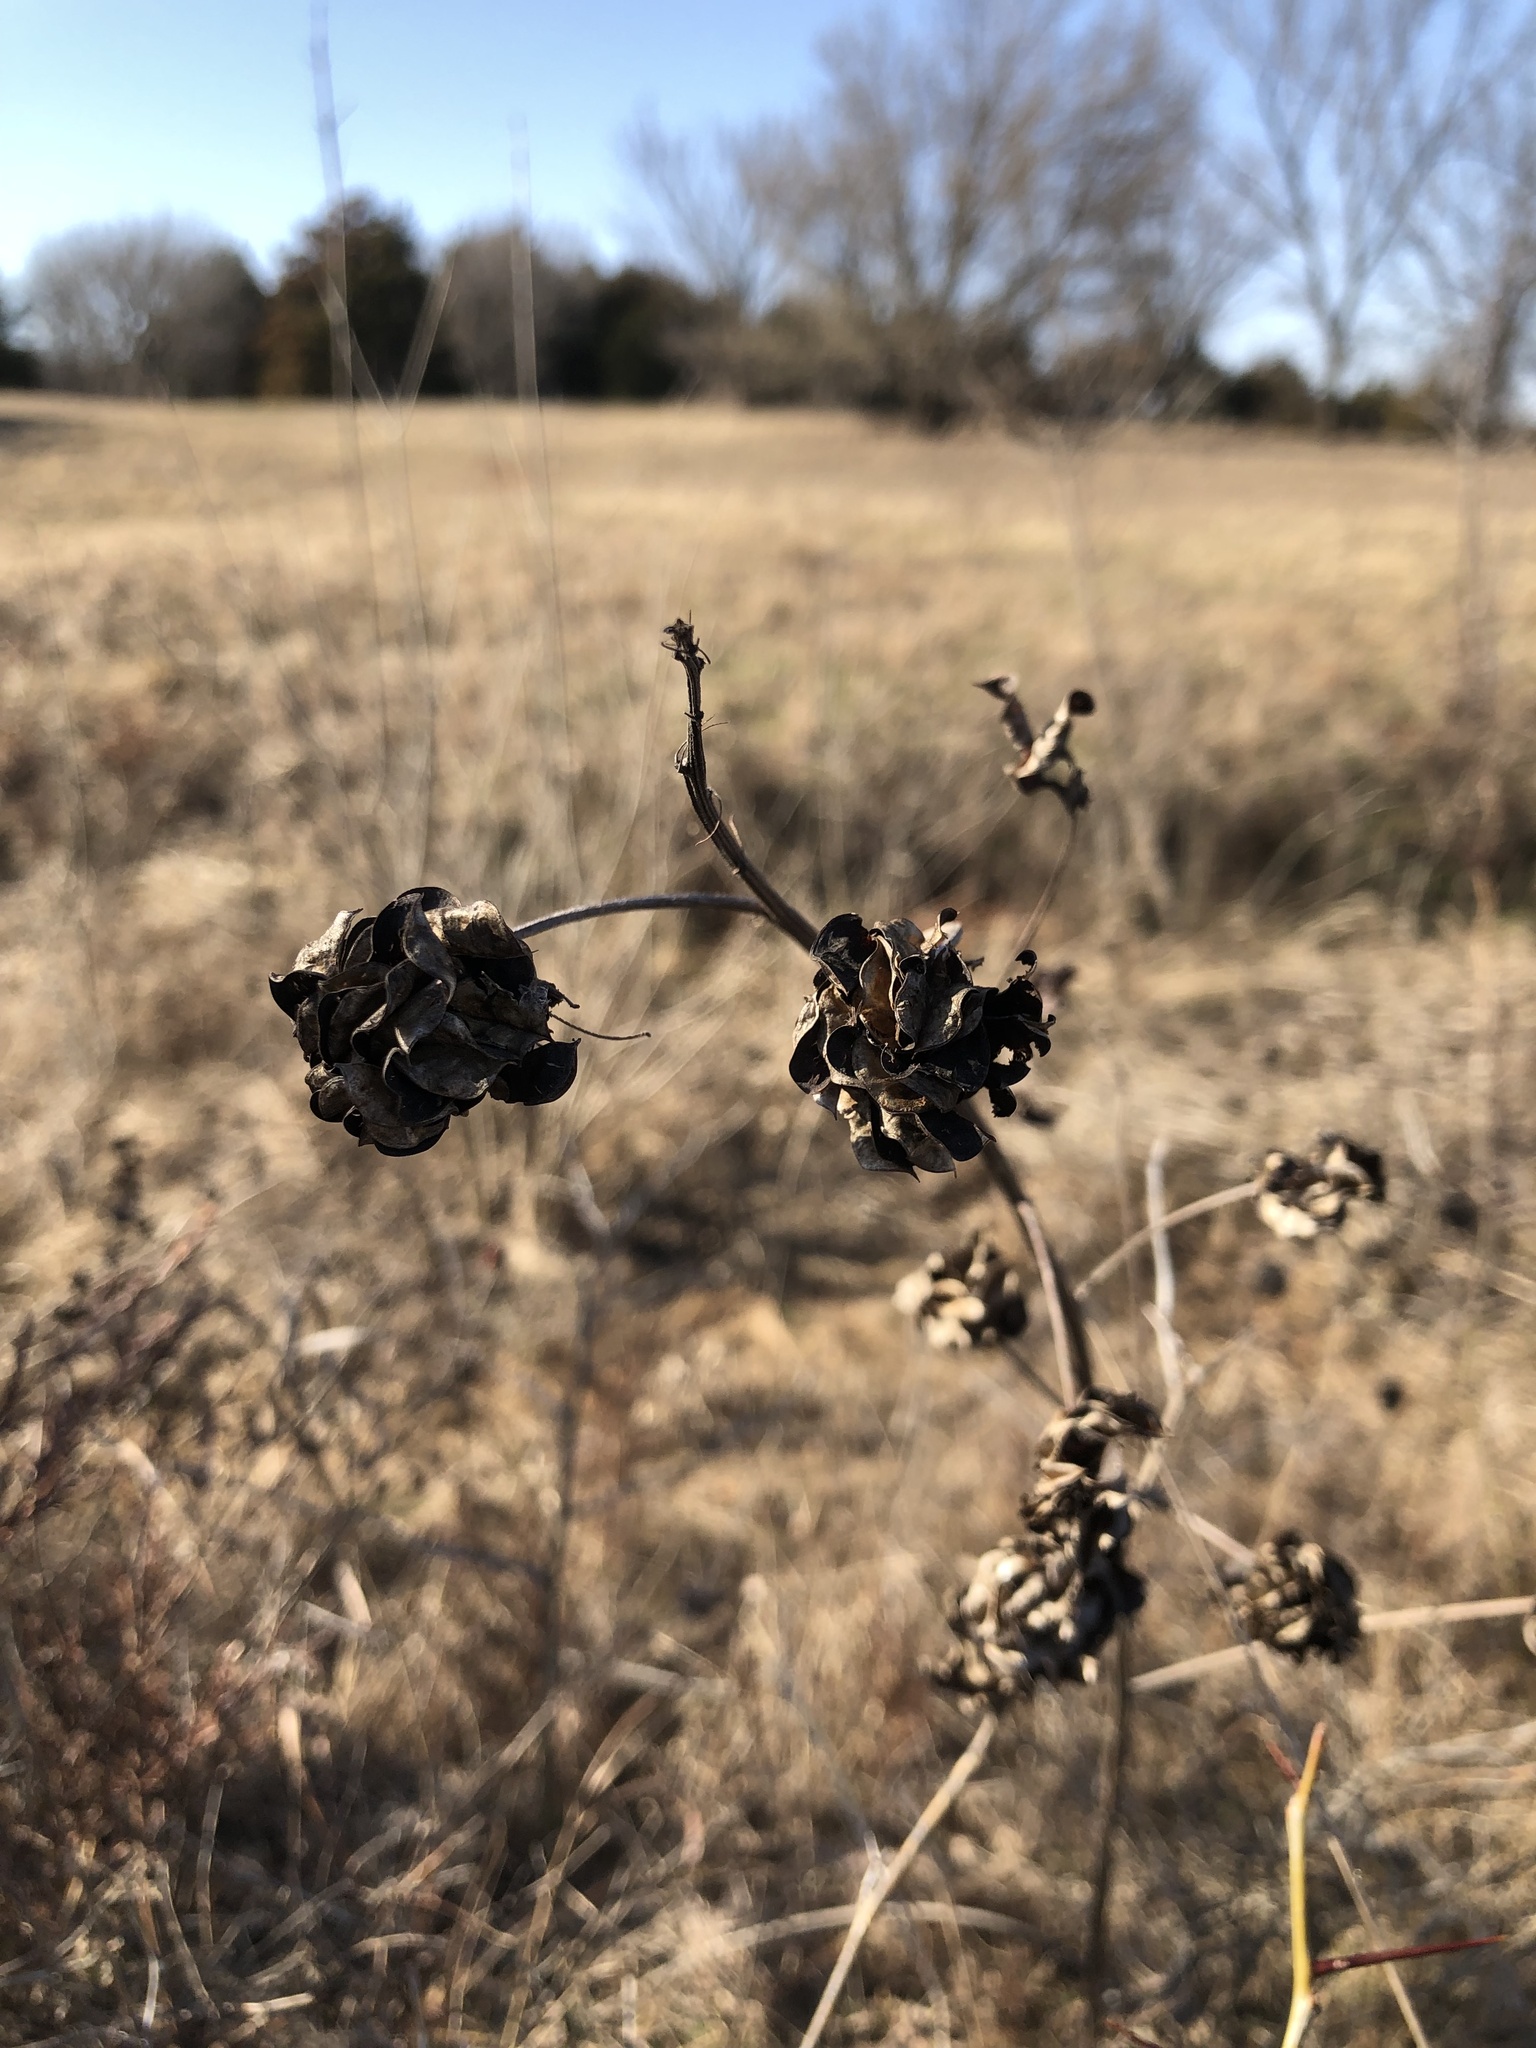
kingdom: Plantae
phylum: Tracheophyta
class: Magnoliopsida
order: Fabales
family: Fabaceae
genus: Desmanthus
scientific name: Desmanthus illinoensis
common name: Illinois bundle-flower
